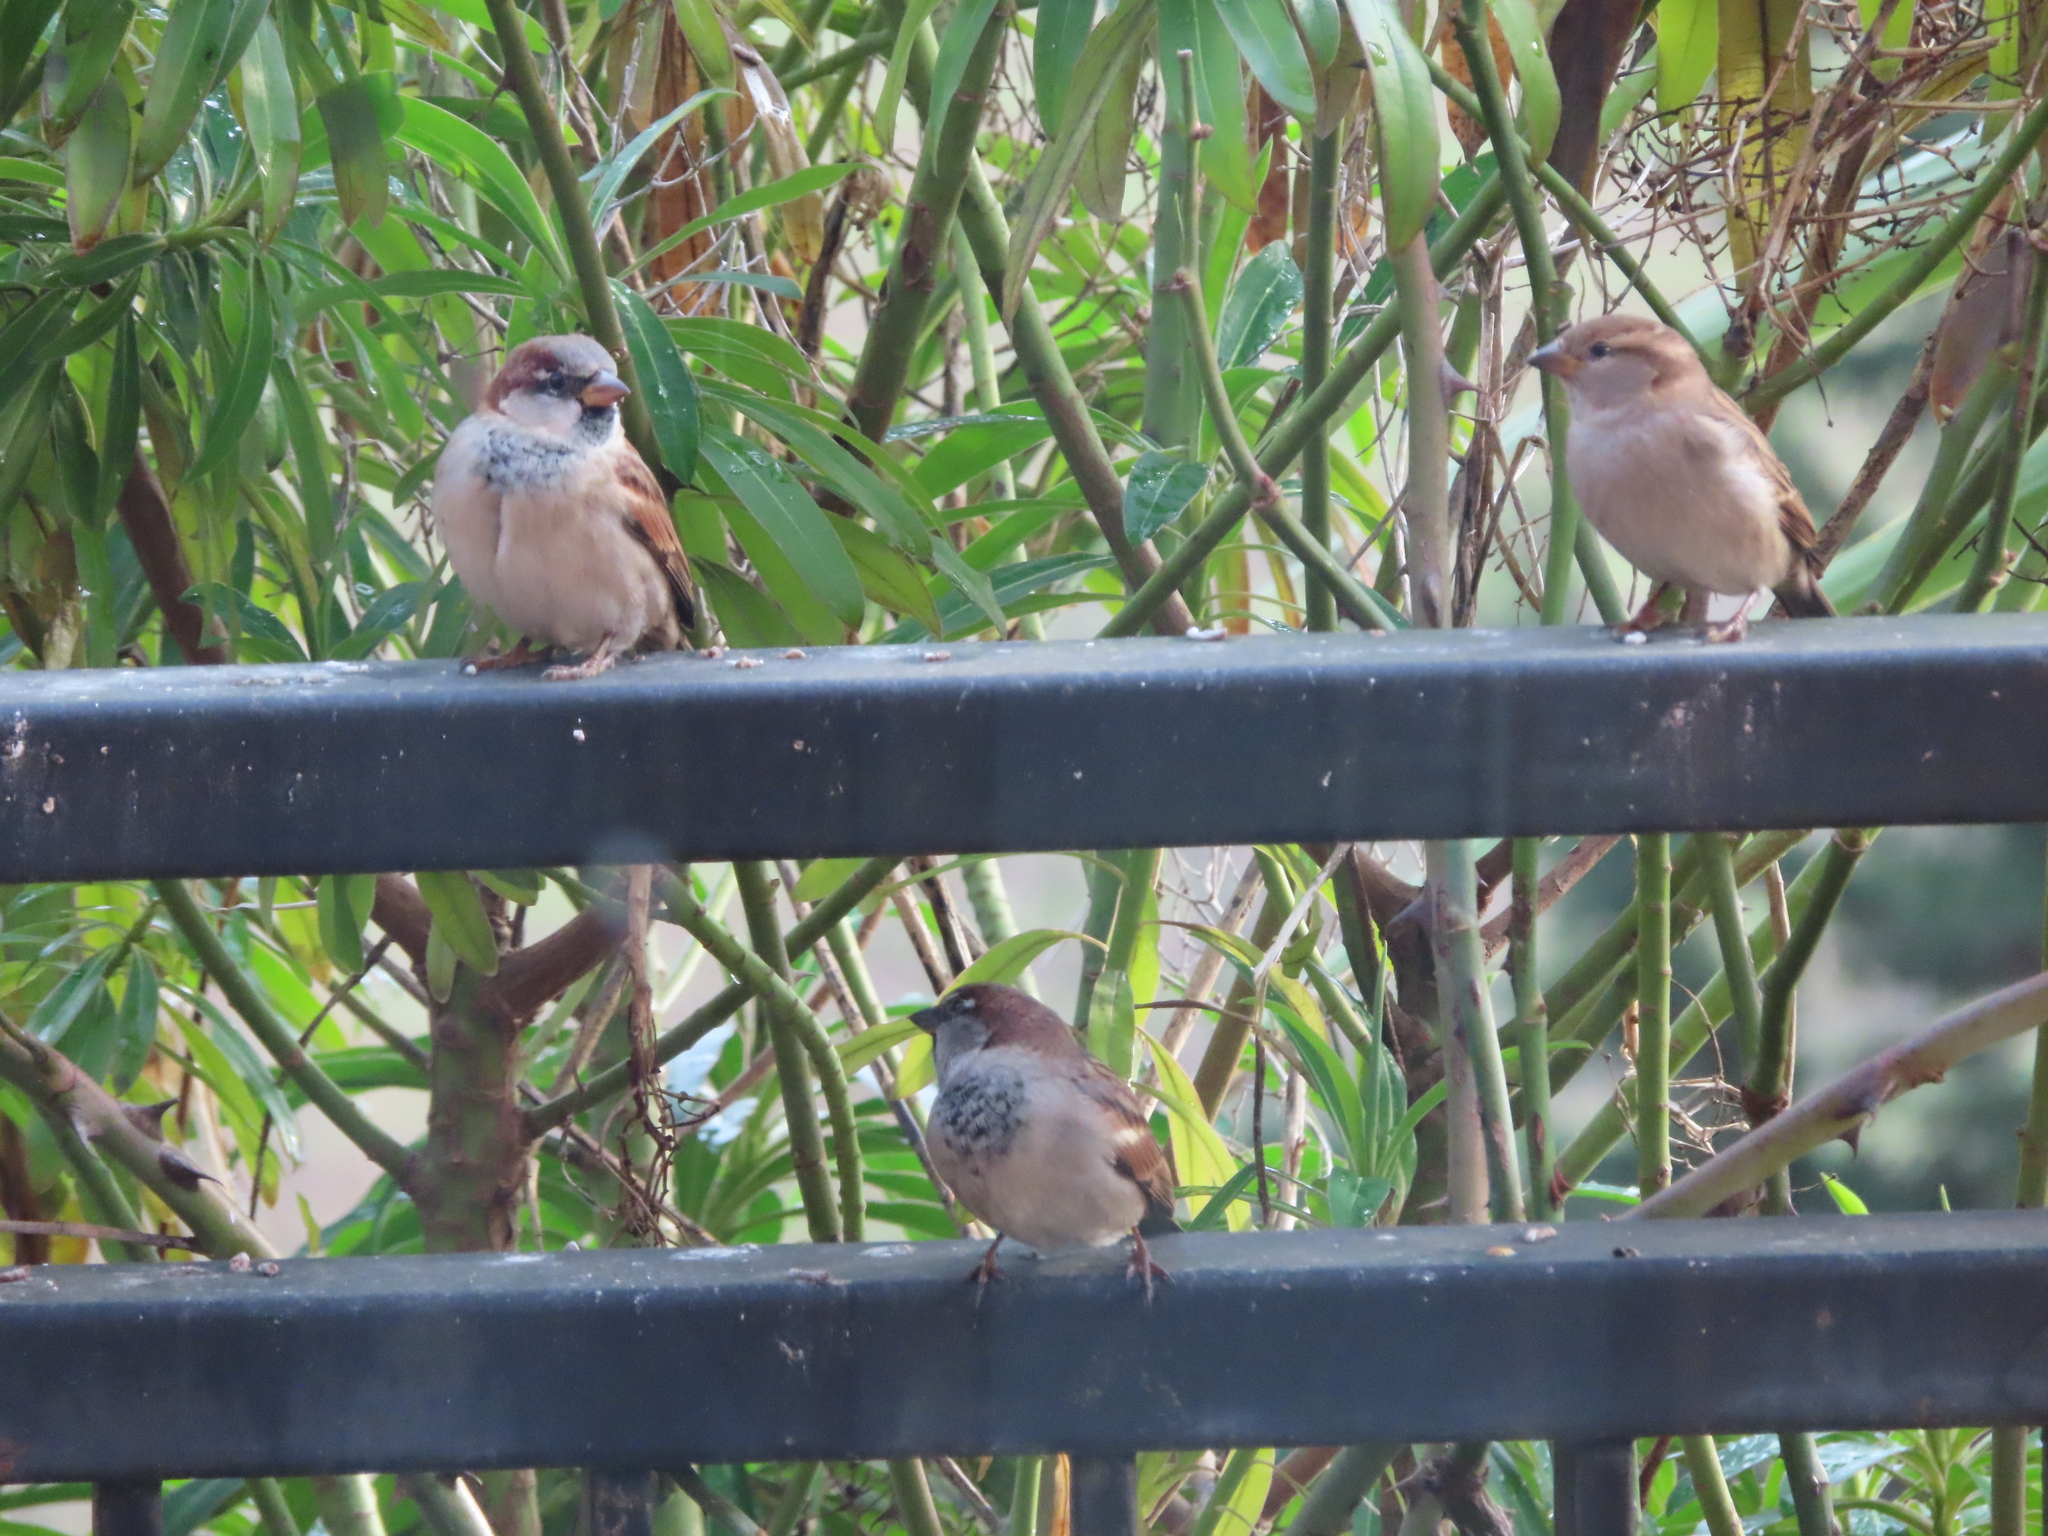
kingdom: Animalia
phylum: Chordata
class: Aves
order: Passeriformes
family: Passeridae
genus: Passer
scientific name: Passer domesticus
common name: House sparrow
